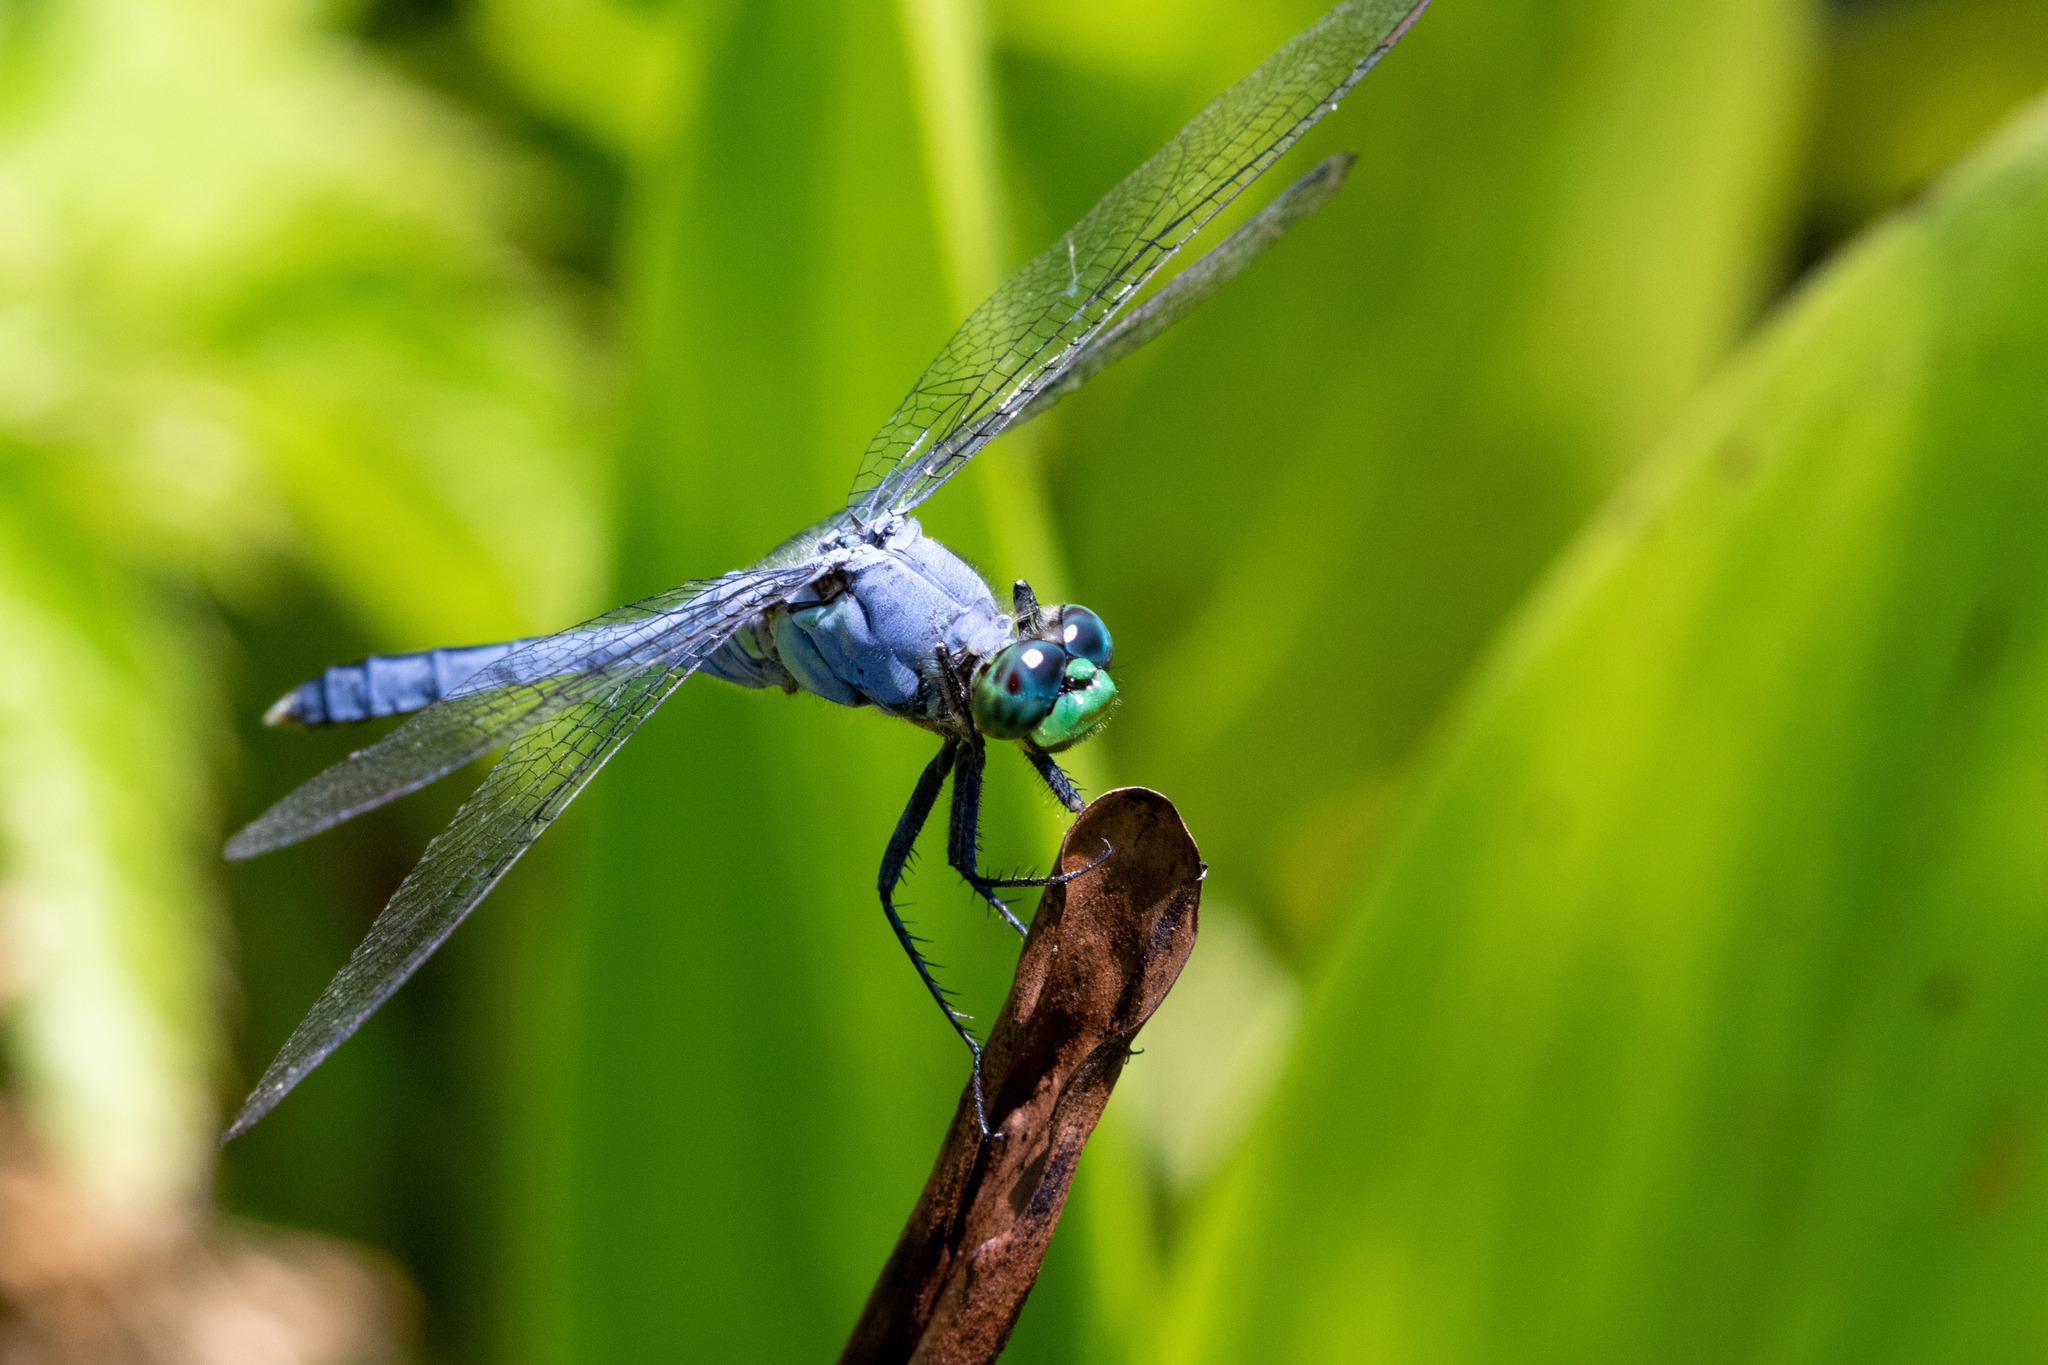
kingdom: Animalia
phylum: Arthropoda
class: Insecta
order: Odonata
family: Libellulidae
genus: Erythemis
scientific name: Erythemis simplicicollis
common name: Eastern pondhawk
